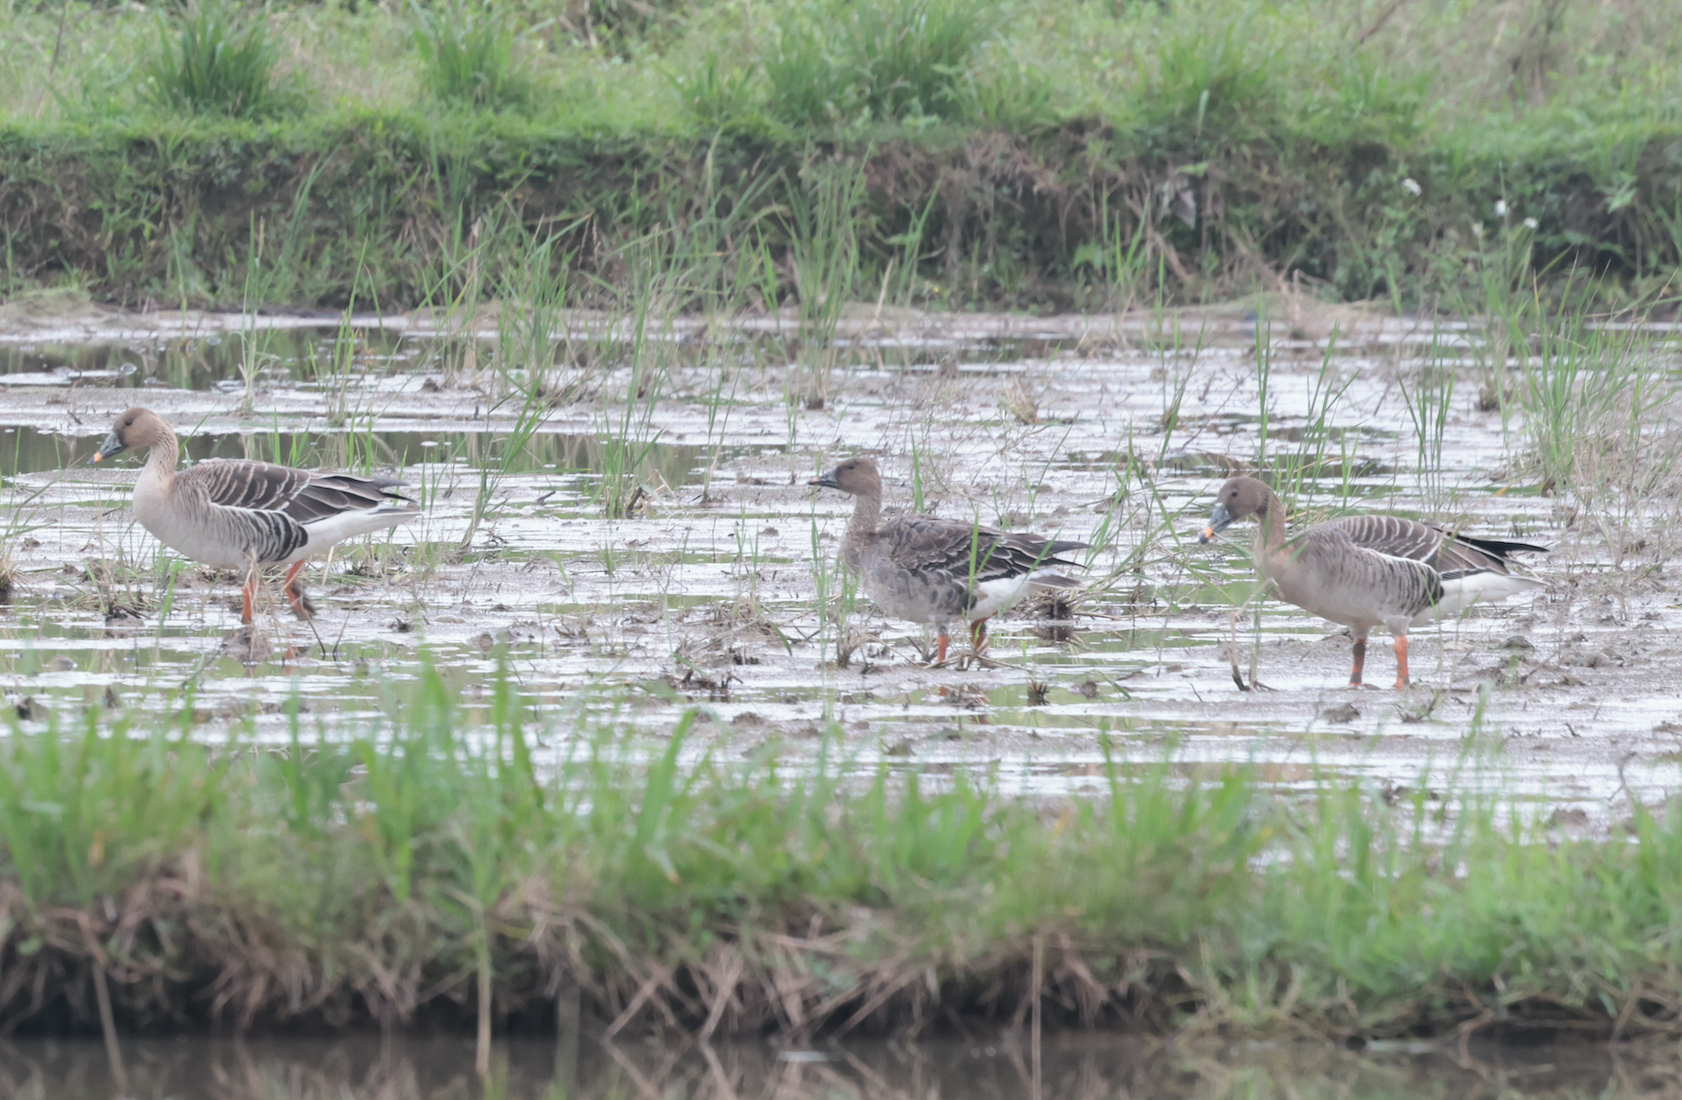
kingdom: Animalia
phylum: Chordata
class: Aves
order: Anseriformes
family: Anatidae
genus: Anser
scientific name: Anser serrirostris
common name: Tundra bean goose
